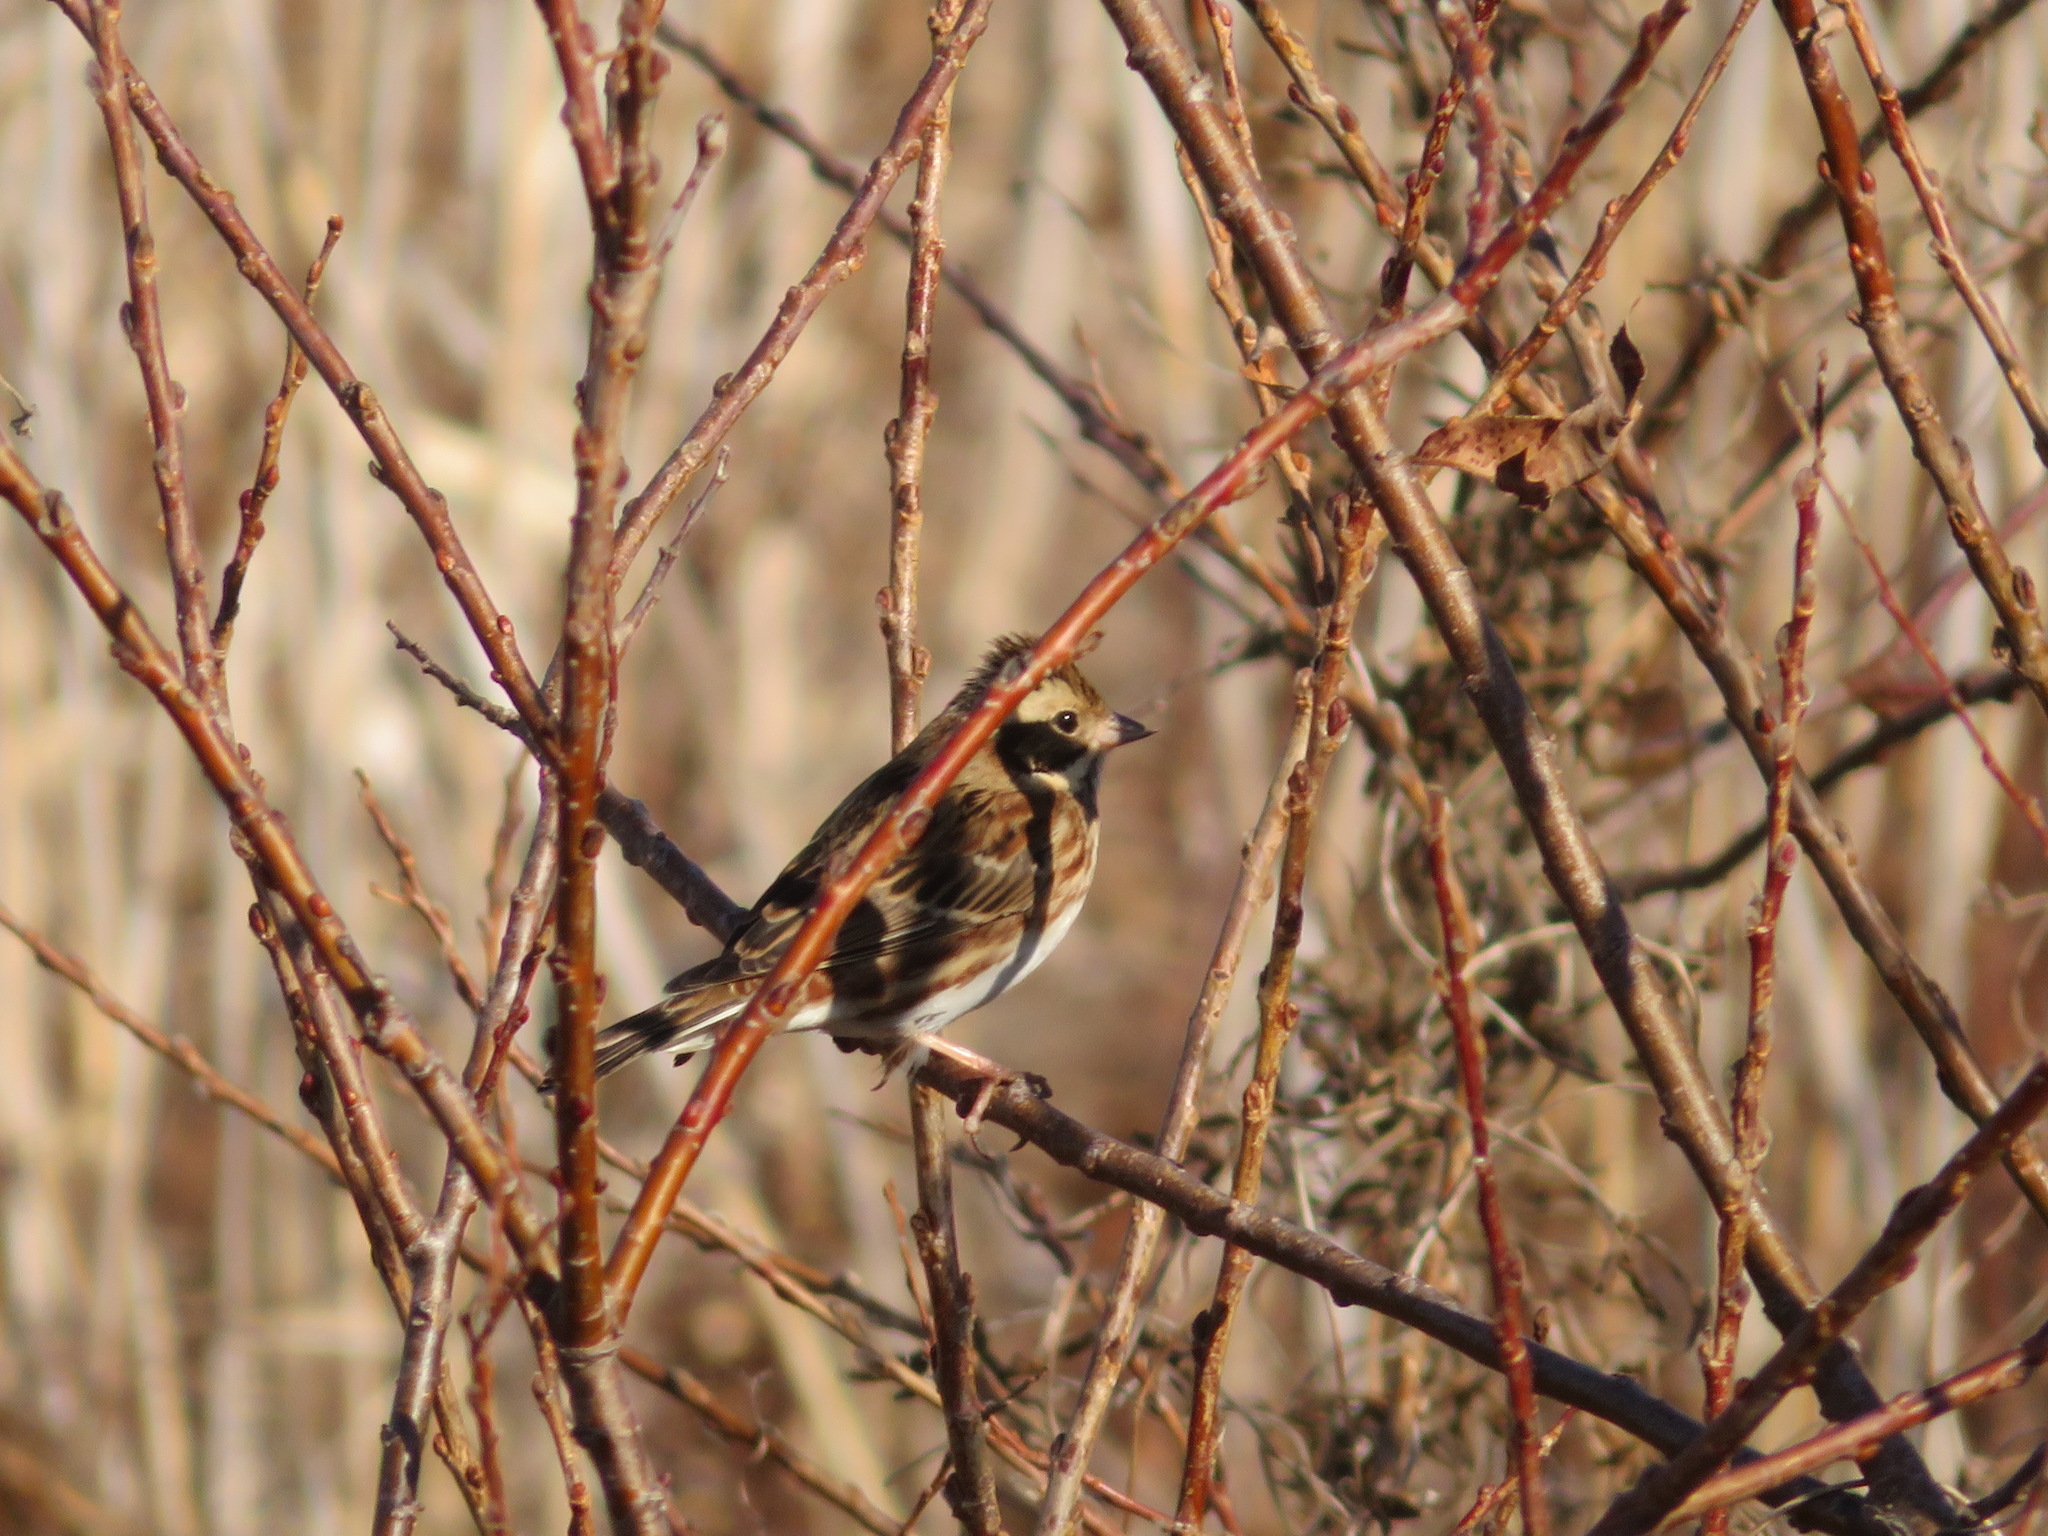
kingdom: Animalia
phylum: Chordata
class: Aves
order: Passeriformes
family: Emberizidae
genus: Emberiza
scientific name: Emberiza rustica
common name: Rustic bunting
